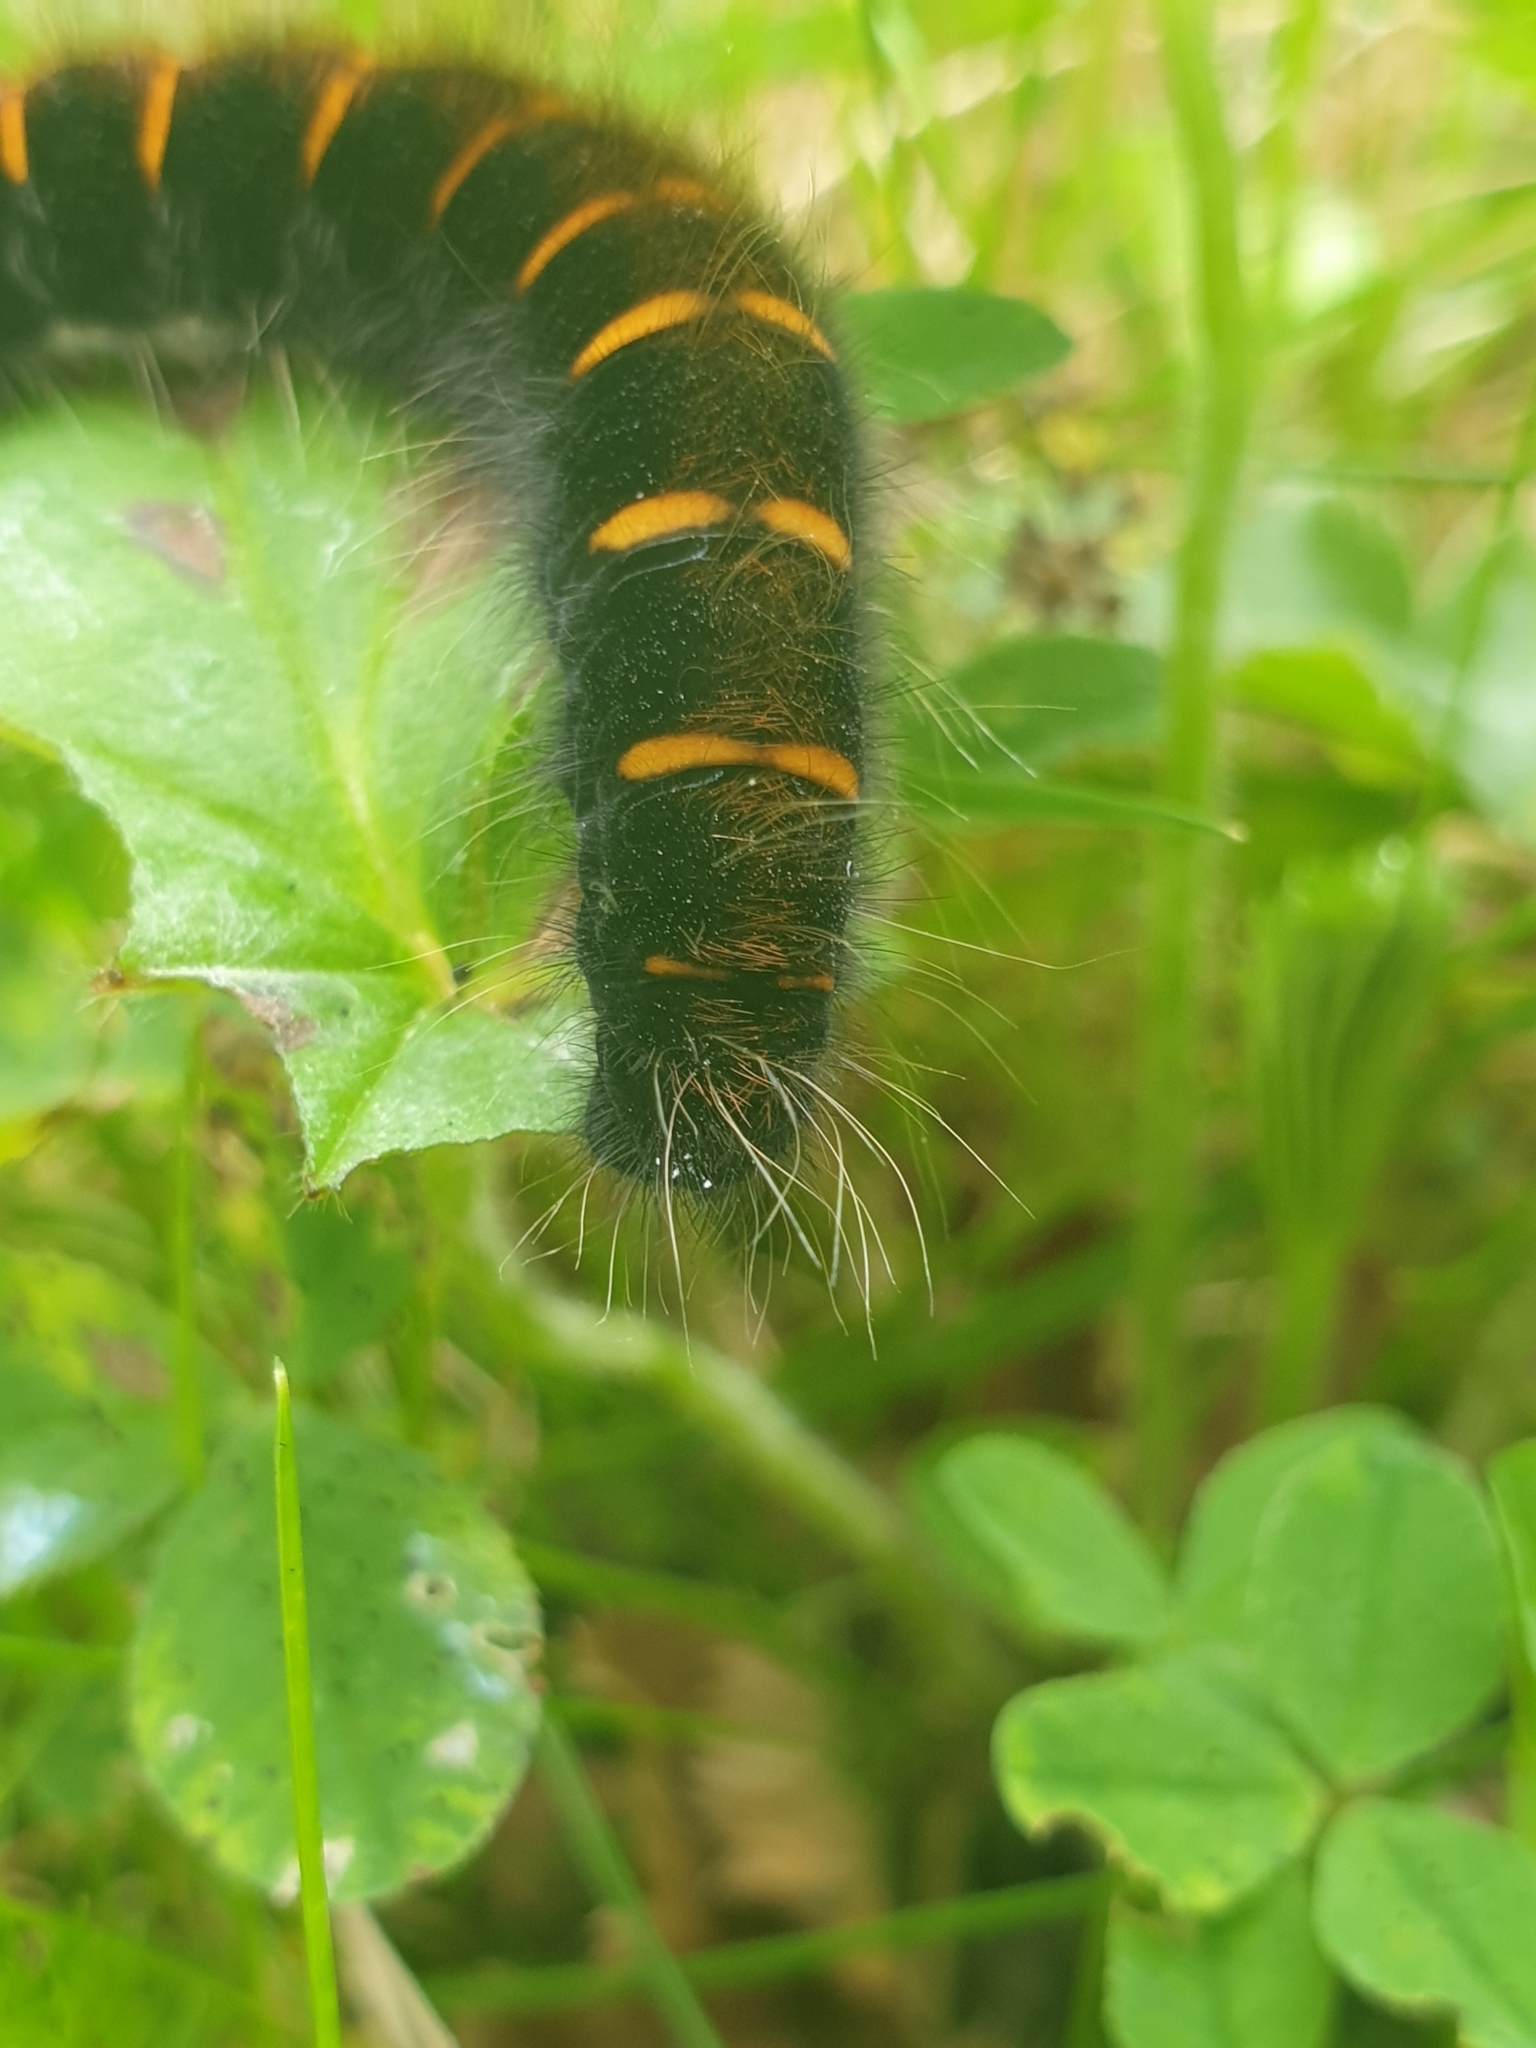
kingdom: Animalia
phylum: Arthropoda
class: Insecta
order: Lepidoptera
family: Lasiocampidae
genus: Macrothylacia
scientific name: Macrothylacia rubi
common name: Fox moth
